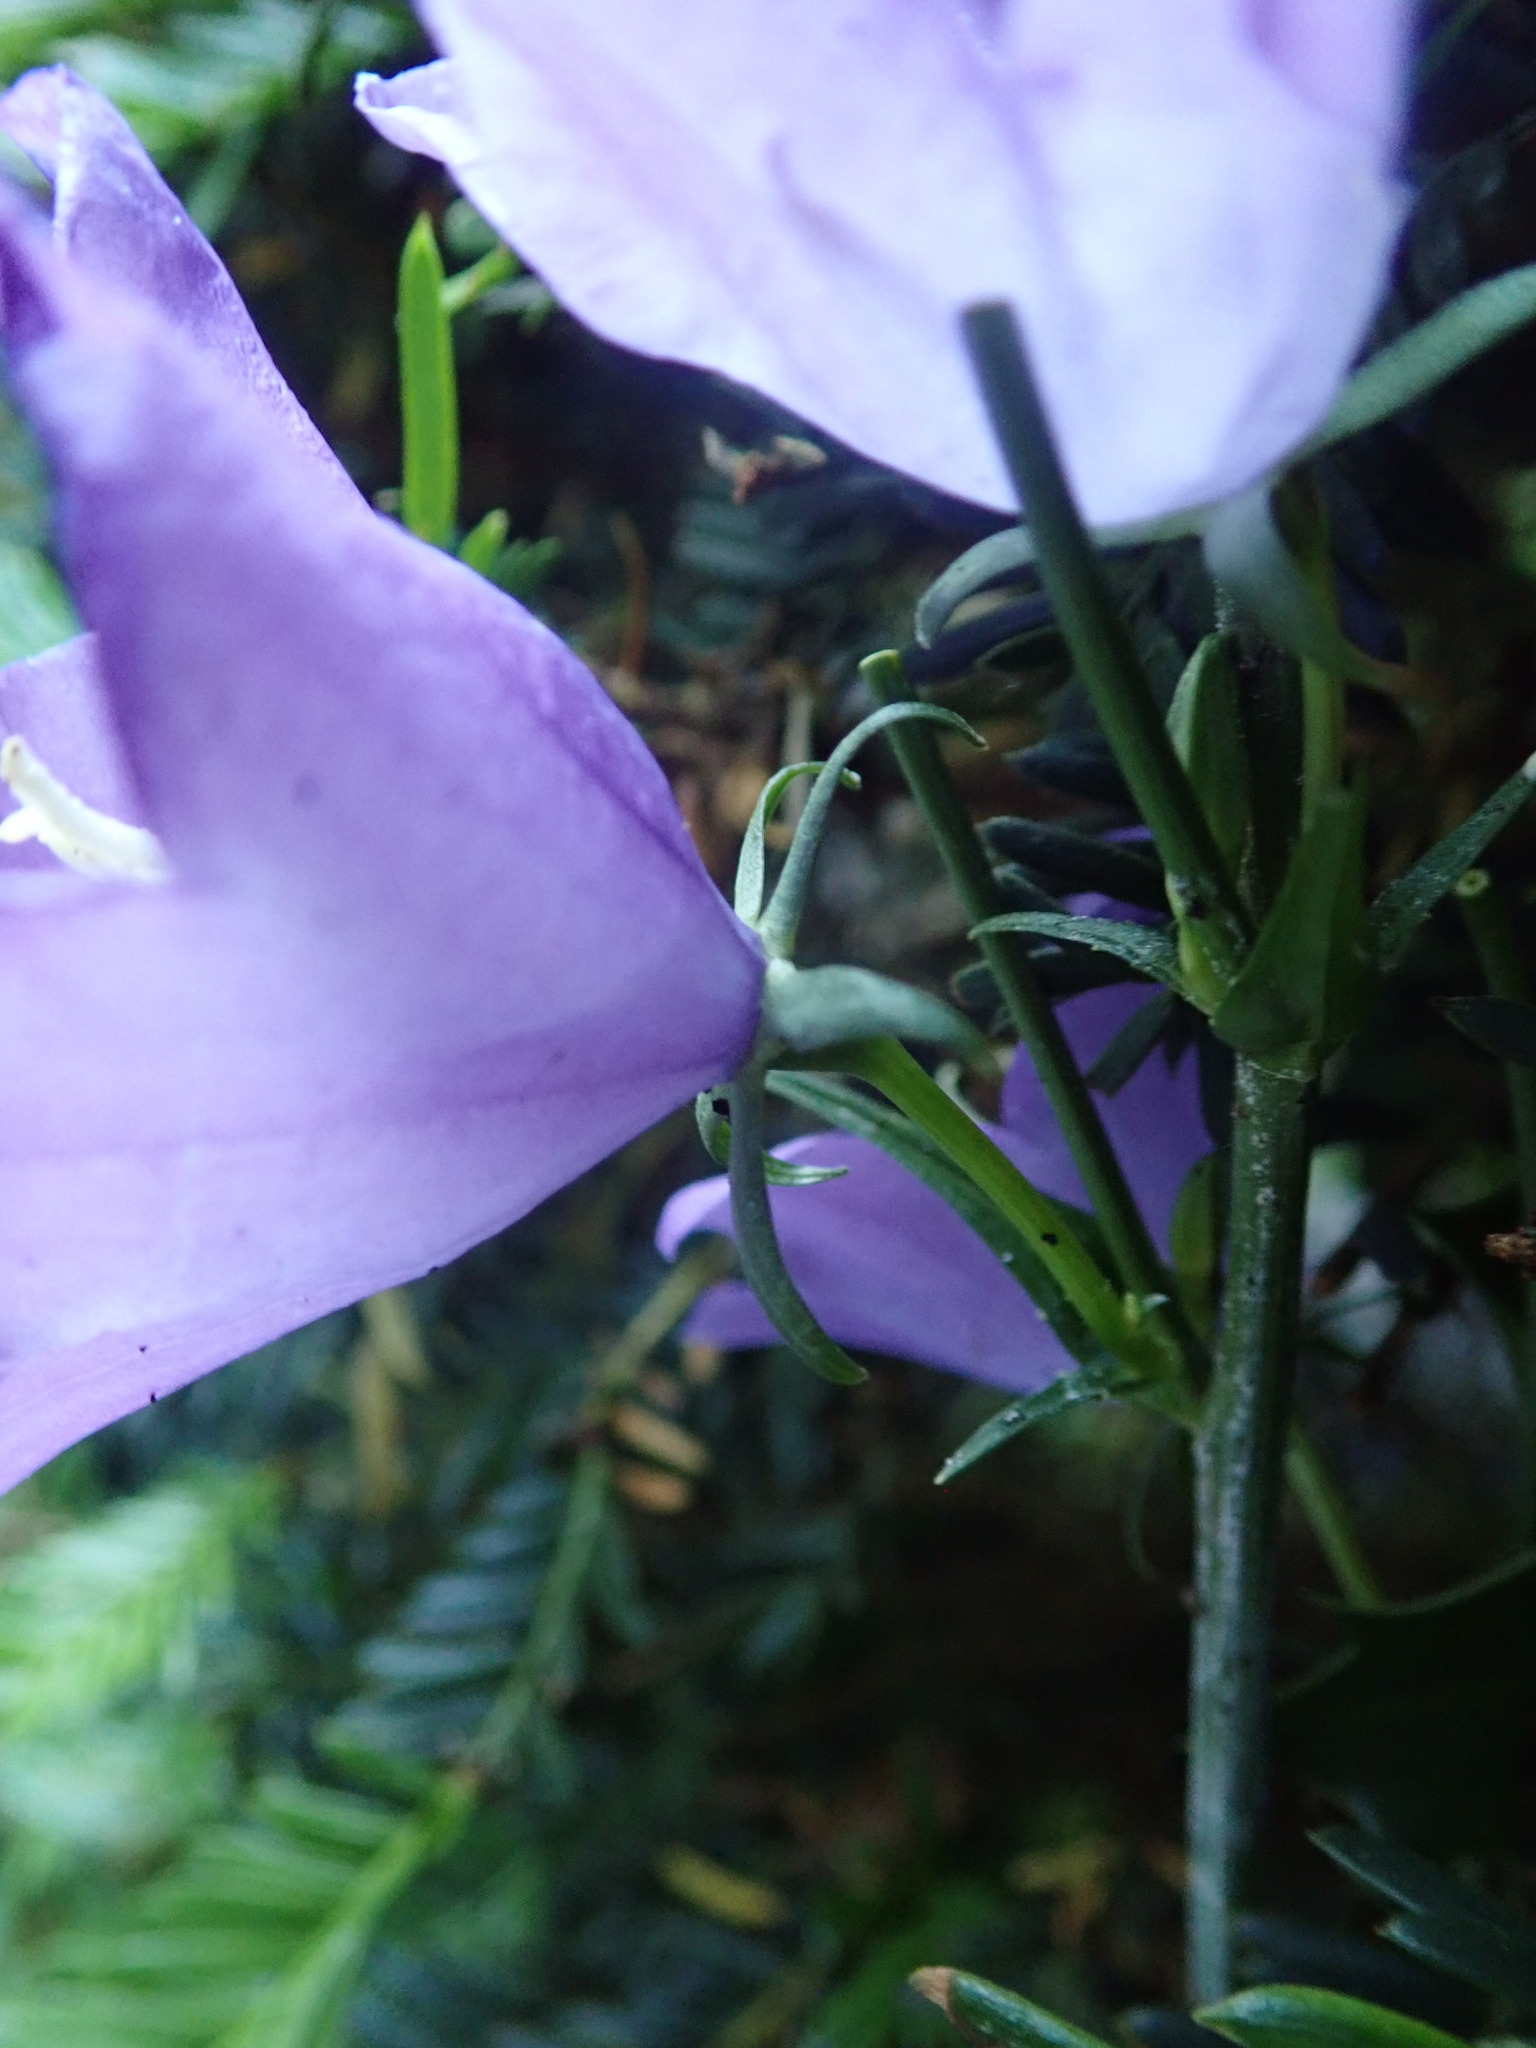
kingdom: Plantae
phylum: Tracheophyta
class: Magnoliopsida
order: Asterales
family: Campanulaceae
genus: Campanula
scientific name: Campanula persicifolia
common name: Peach-leaved bellflower
